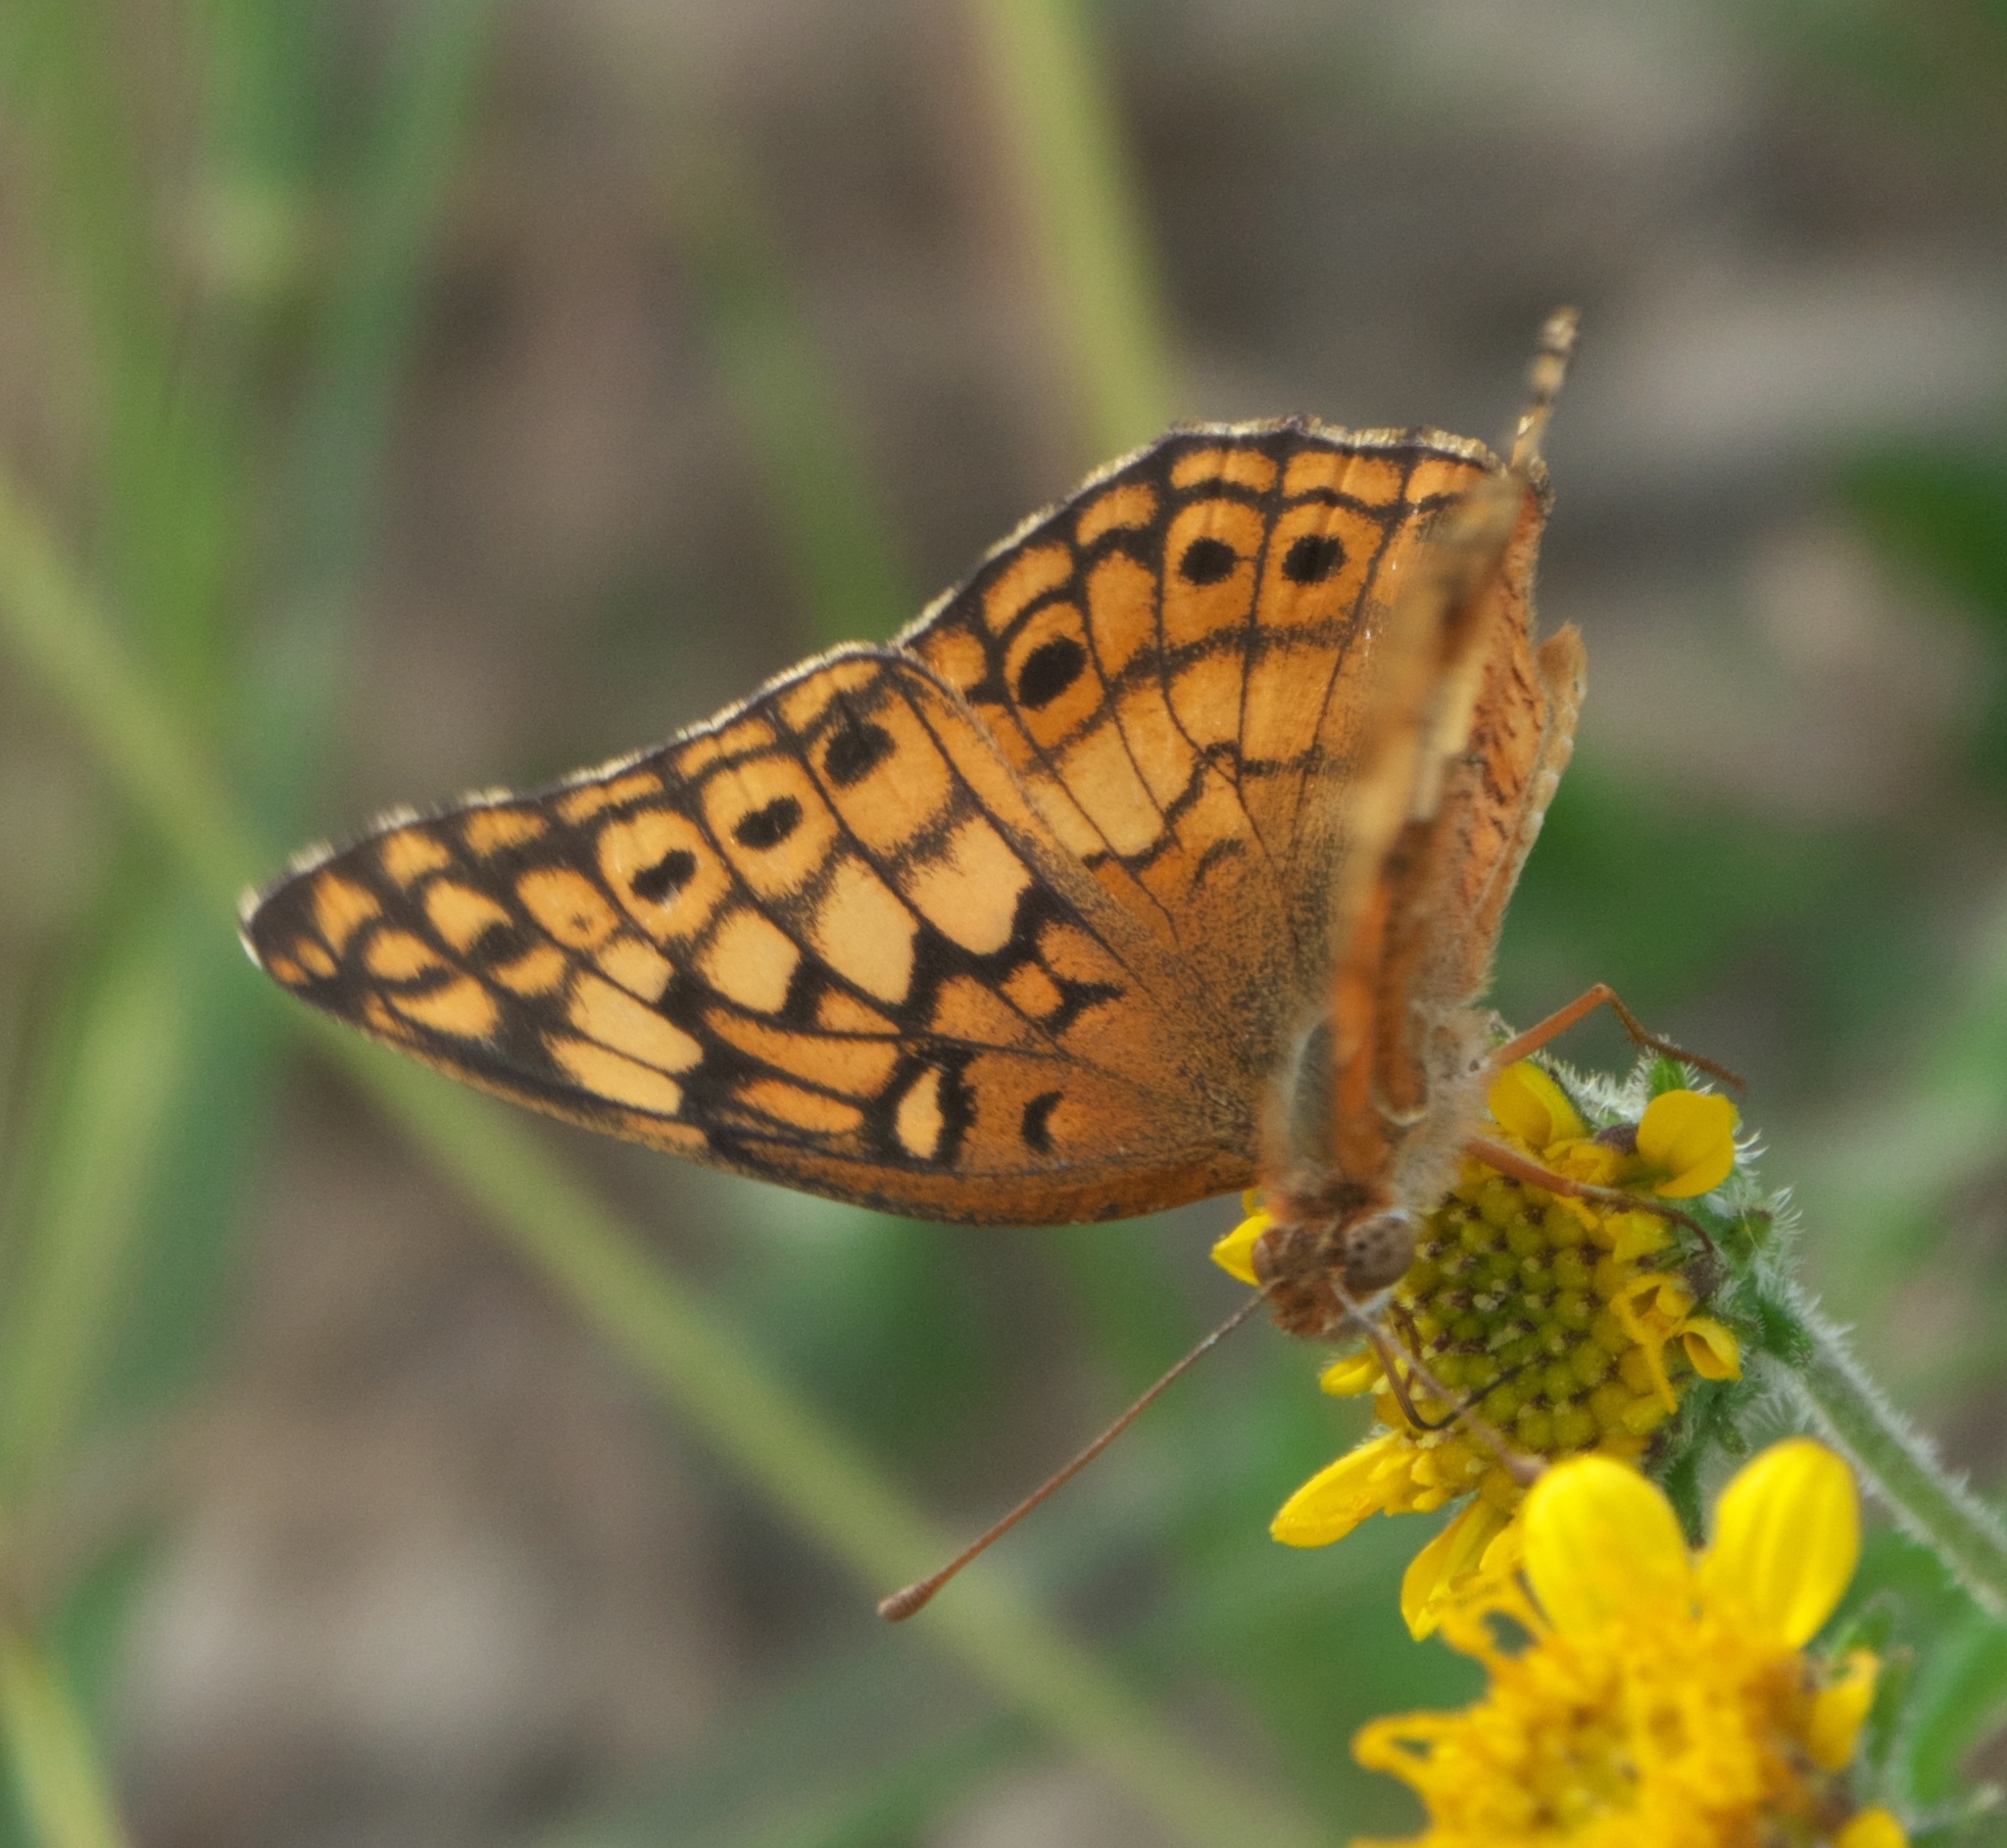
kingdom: Animalia
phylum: Arthropoda
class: Insecta
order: Lepidoptera
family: Nymphalidae
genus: Euptoieta
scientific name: Euptoieta claudia
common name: Variegated fritillary
